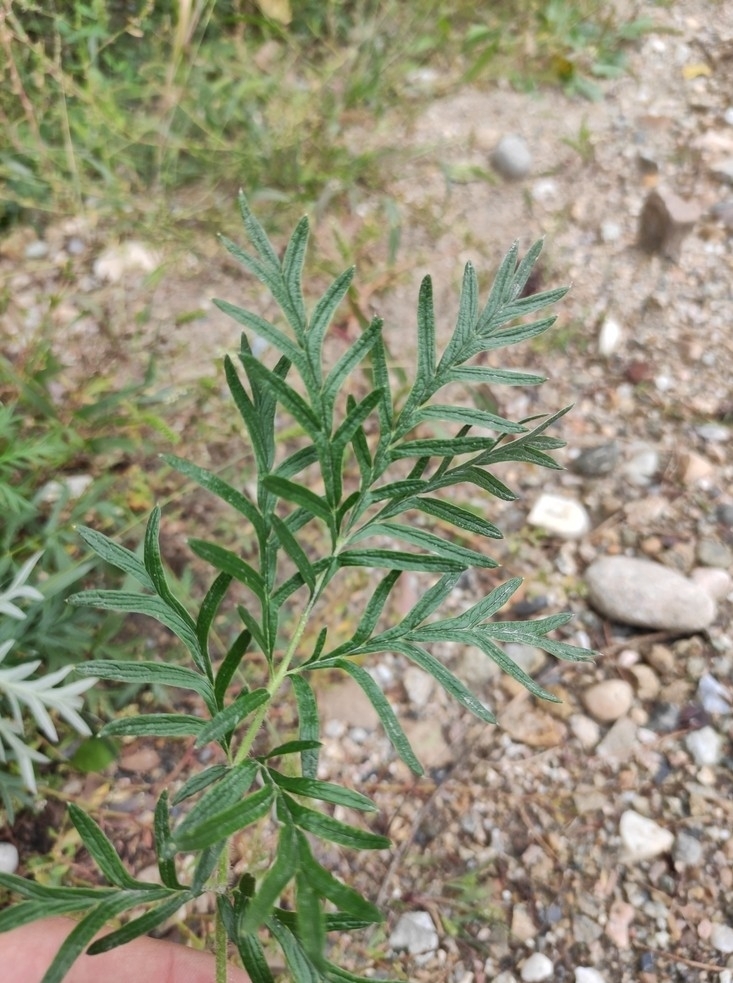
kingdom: Plantae
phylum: Tracheophyta
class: Magnoliopsida
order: Rosales
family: Rosaceae
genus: Potentilla
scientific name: Potentilla tergemina
